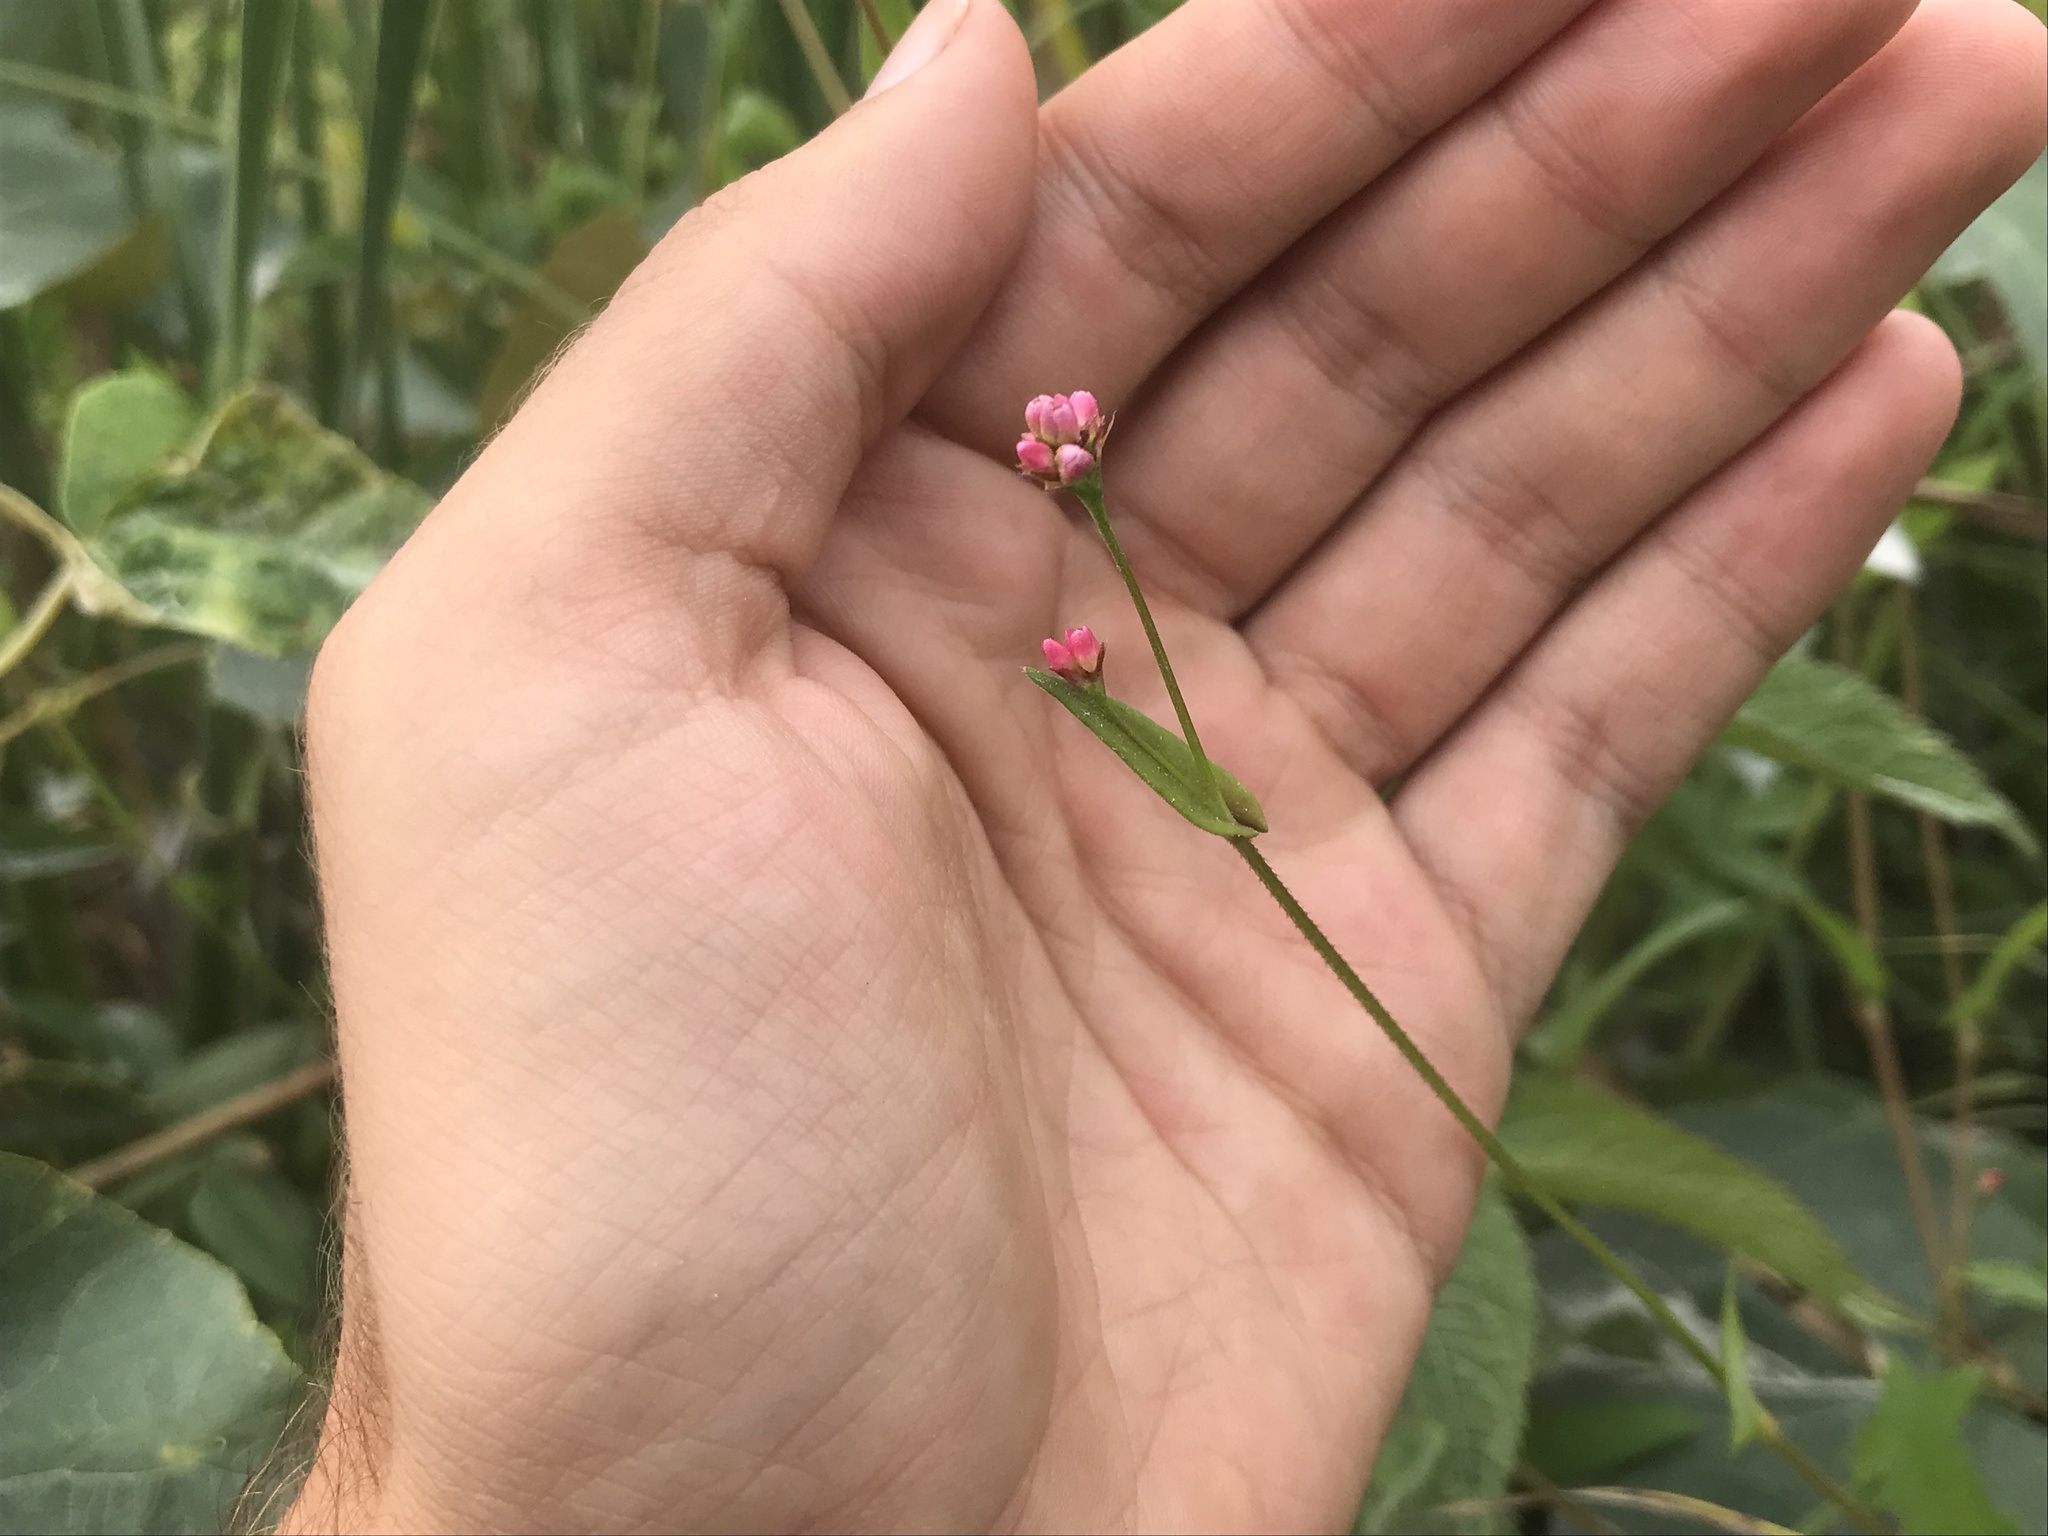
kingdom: Plantae
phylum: Tracheophyta
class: Magnoliopsida
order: Caryophyllales
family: Polygonaceae
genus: Persicaria
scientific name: Persicaria sagittata
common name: American tearthumb
